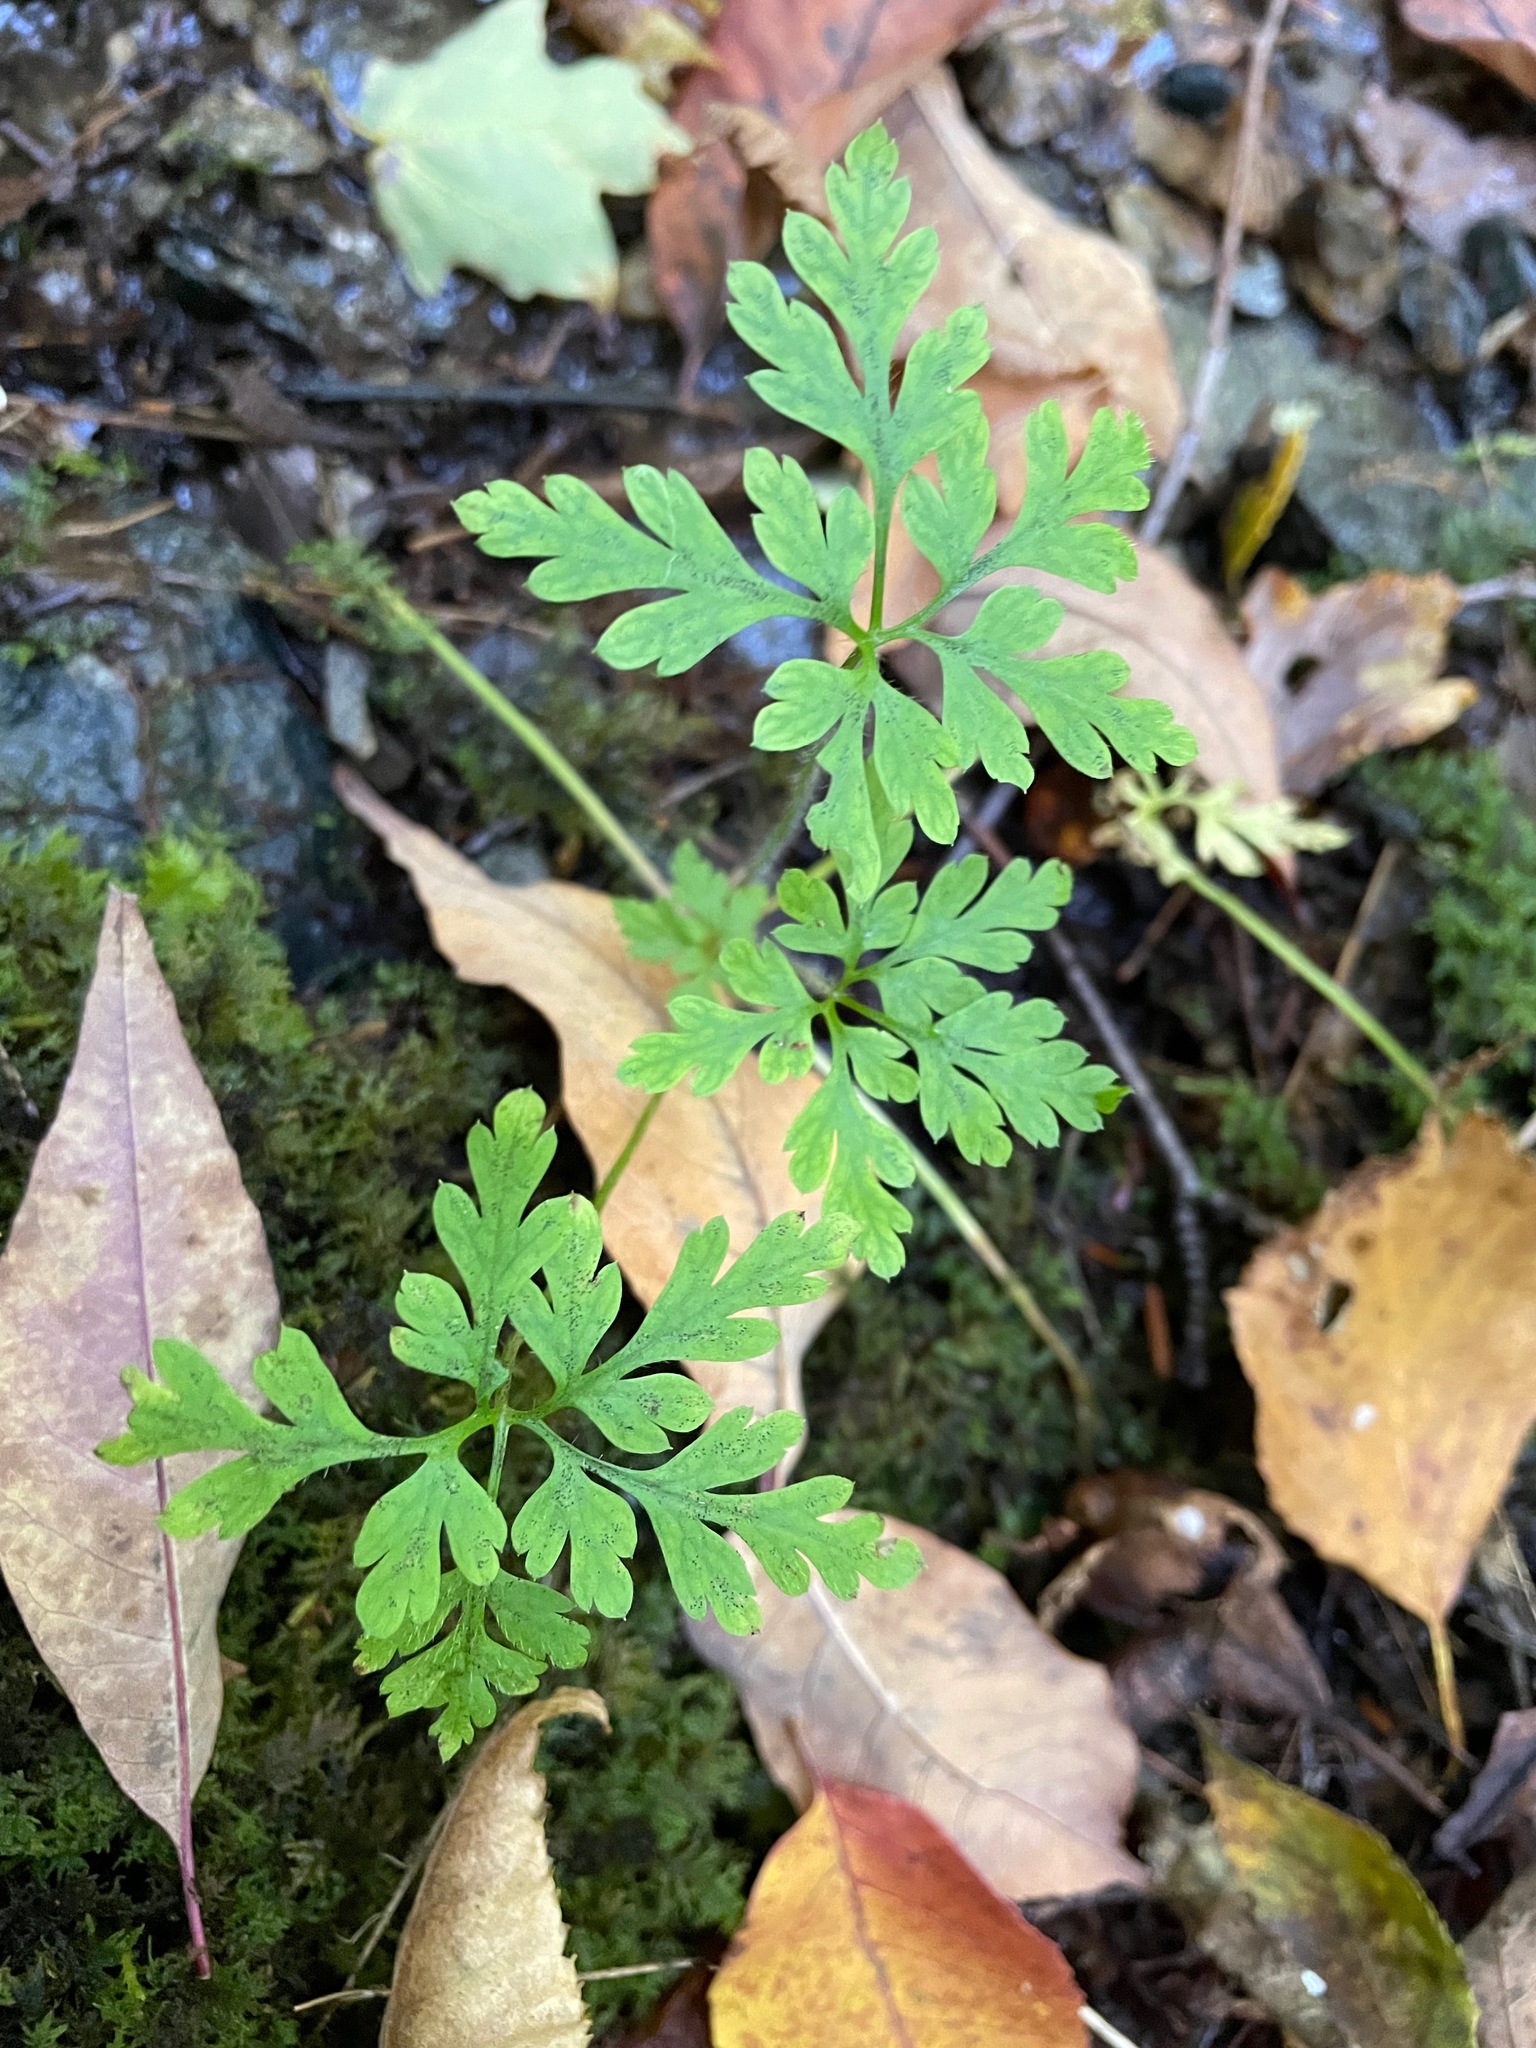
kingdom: Plantae
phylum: Tracheophyta
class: Magnoliopsida
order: Geraniales
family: Geraniaceae
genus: Geranium
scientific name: Geranium robertianum
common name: Herb-robert
